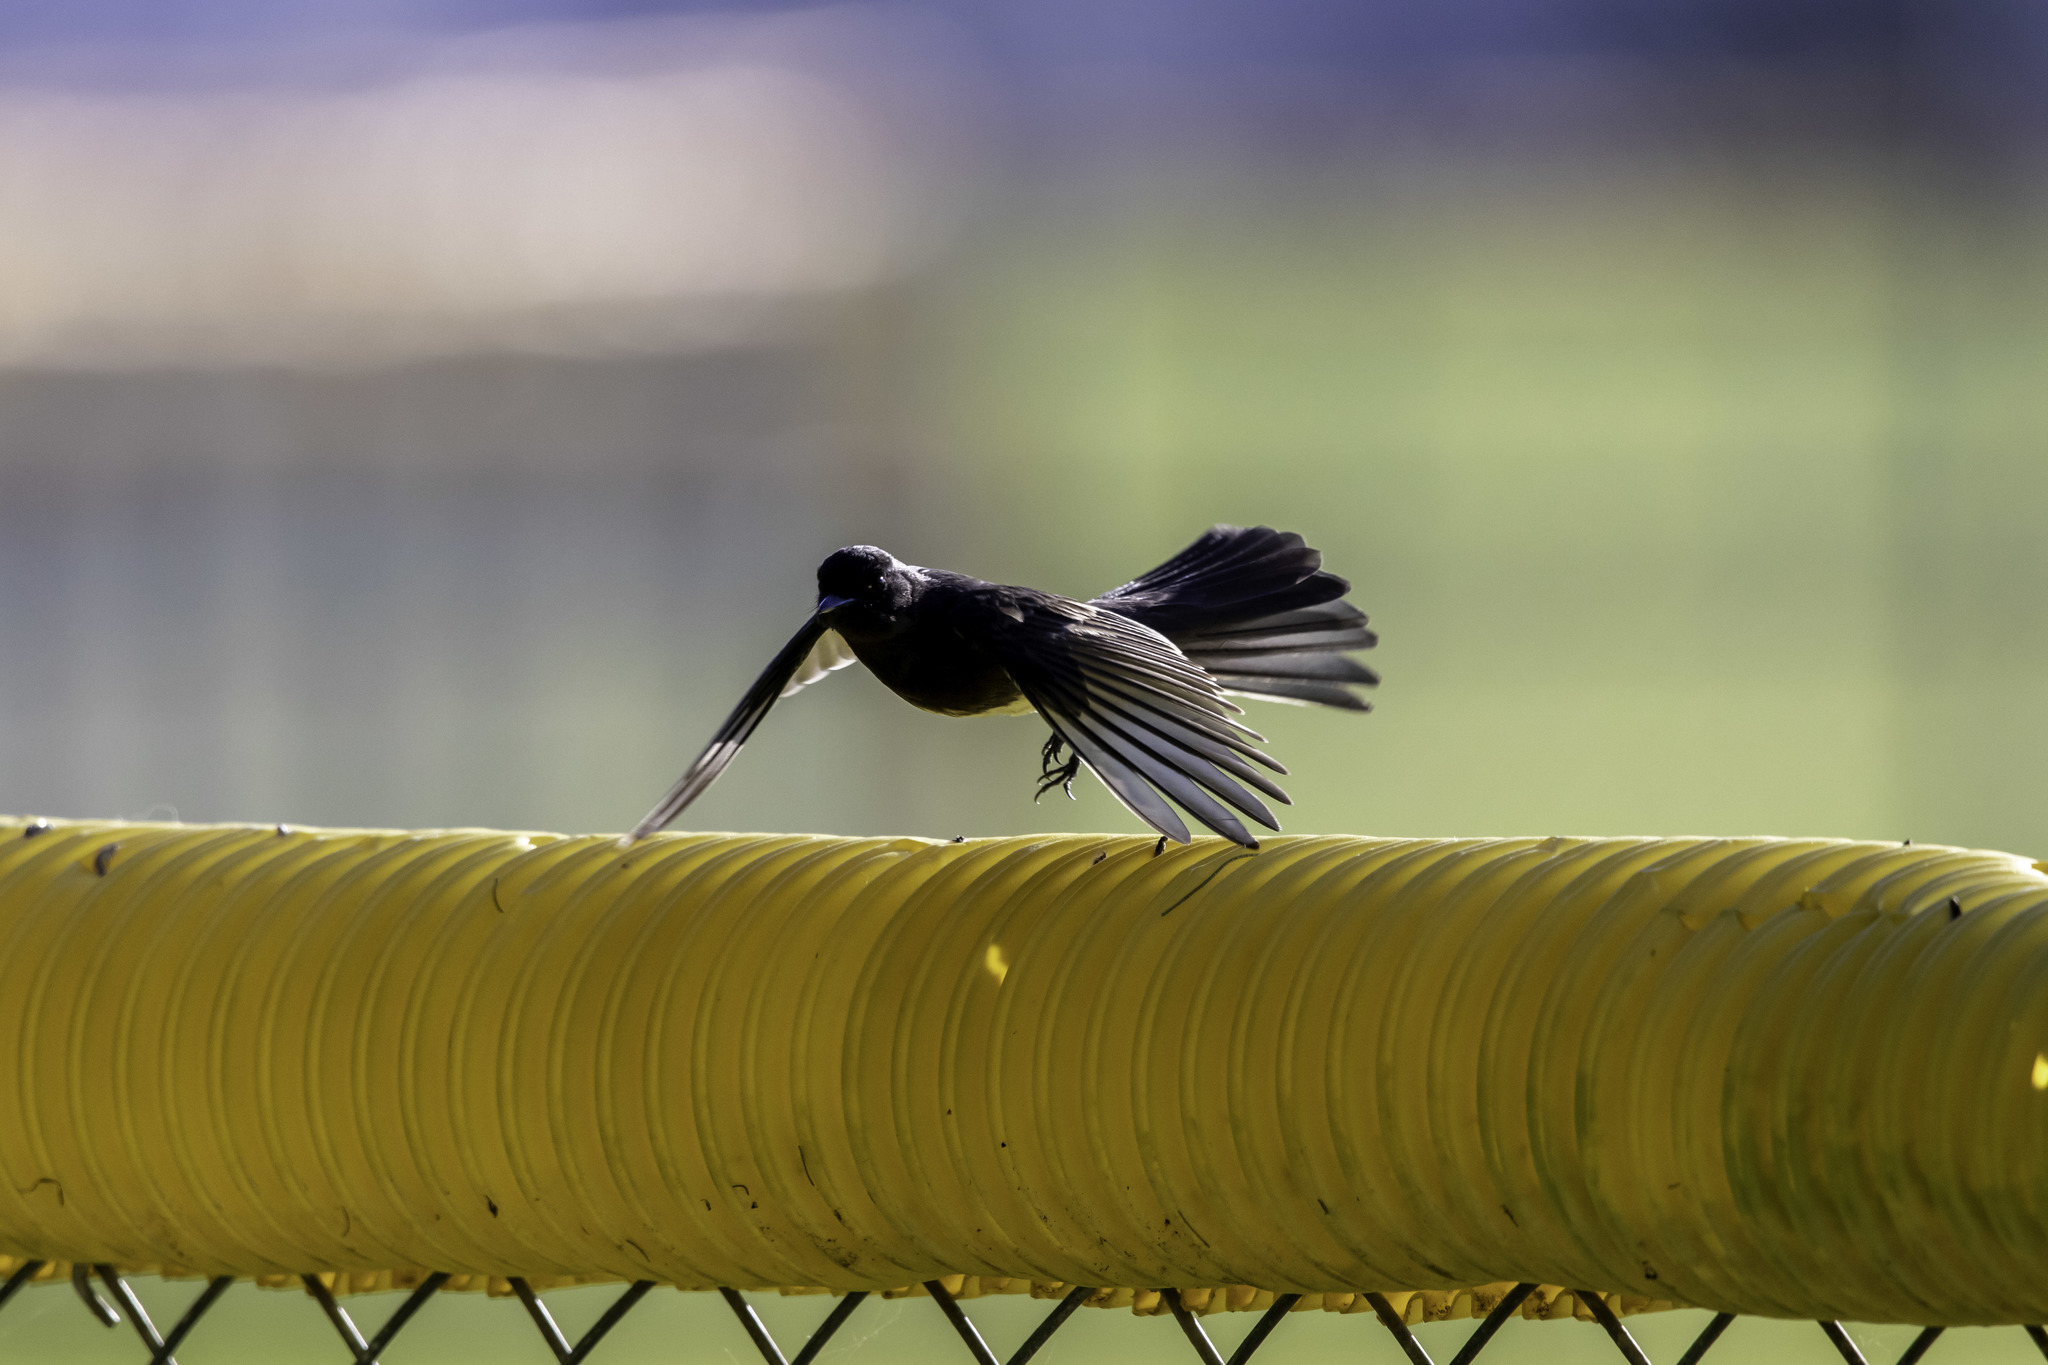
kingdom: Animalia
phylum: Chordata
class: Aves
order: Passeriformes
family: Tyrannidae
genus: Sayornis
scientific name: Sayornis nigricans
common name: Black phoebe
